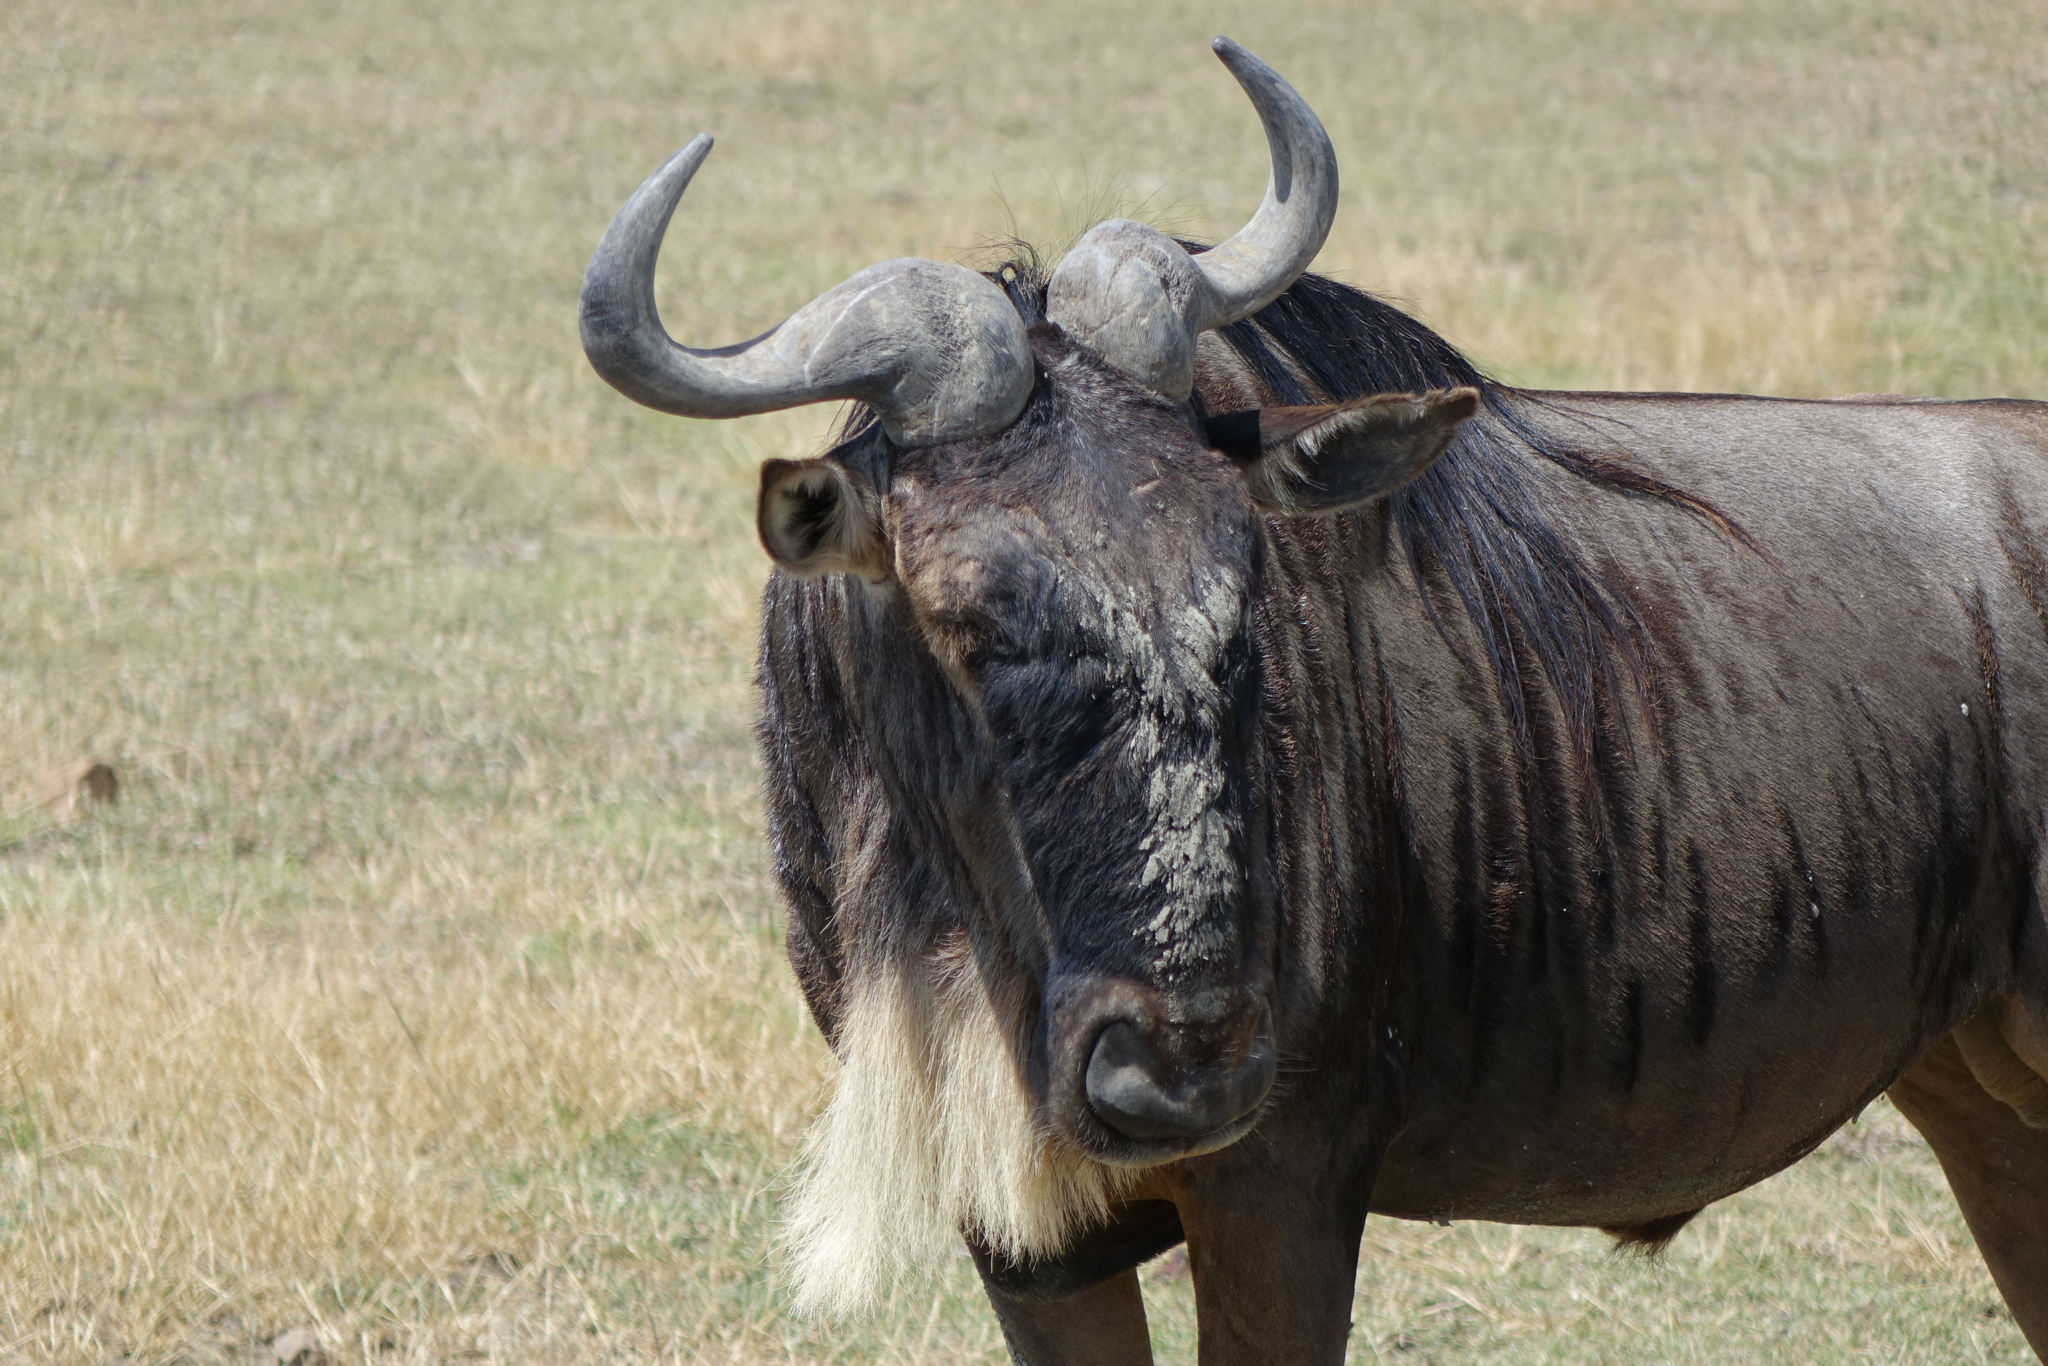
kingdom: Animalia
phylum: Chordata
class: Mammalia
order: Artiodactyla
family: Bovidae
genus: Connochaetes
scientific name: Connochaetes taurinus
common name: Blue wildebeest
